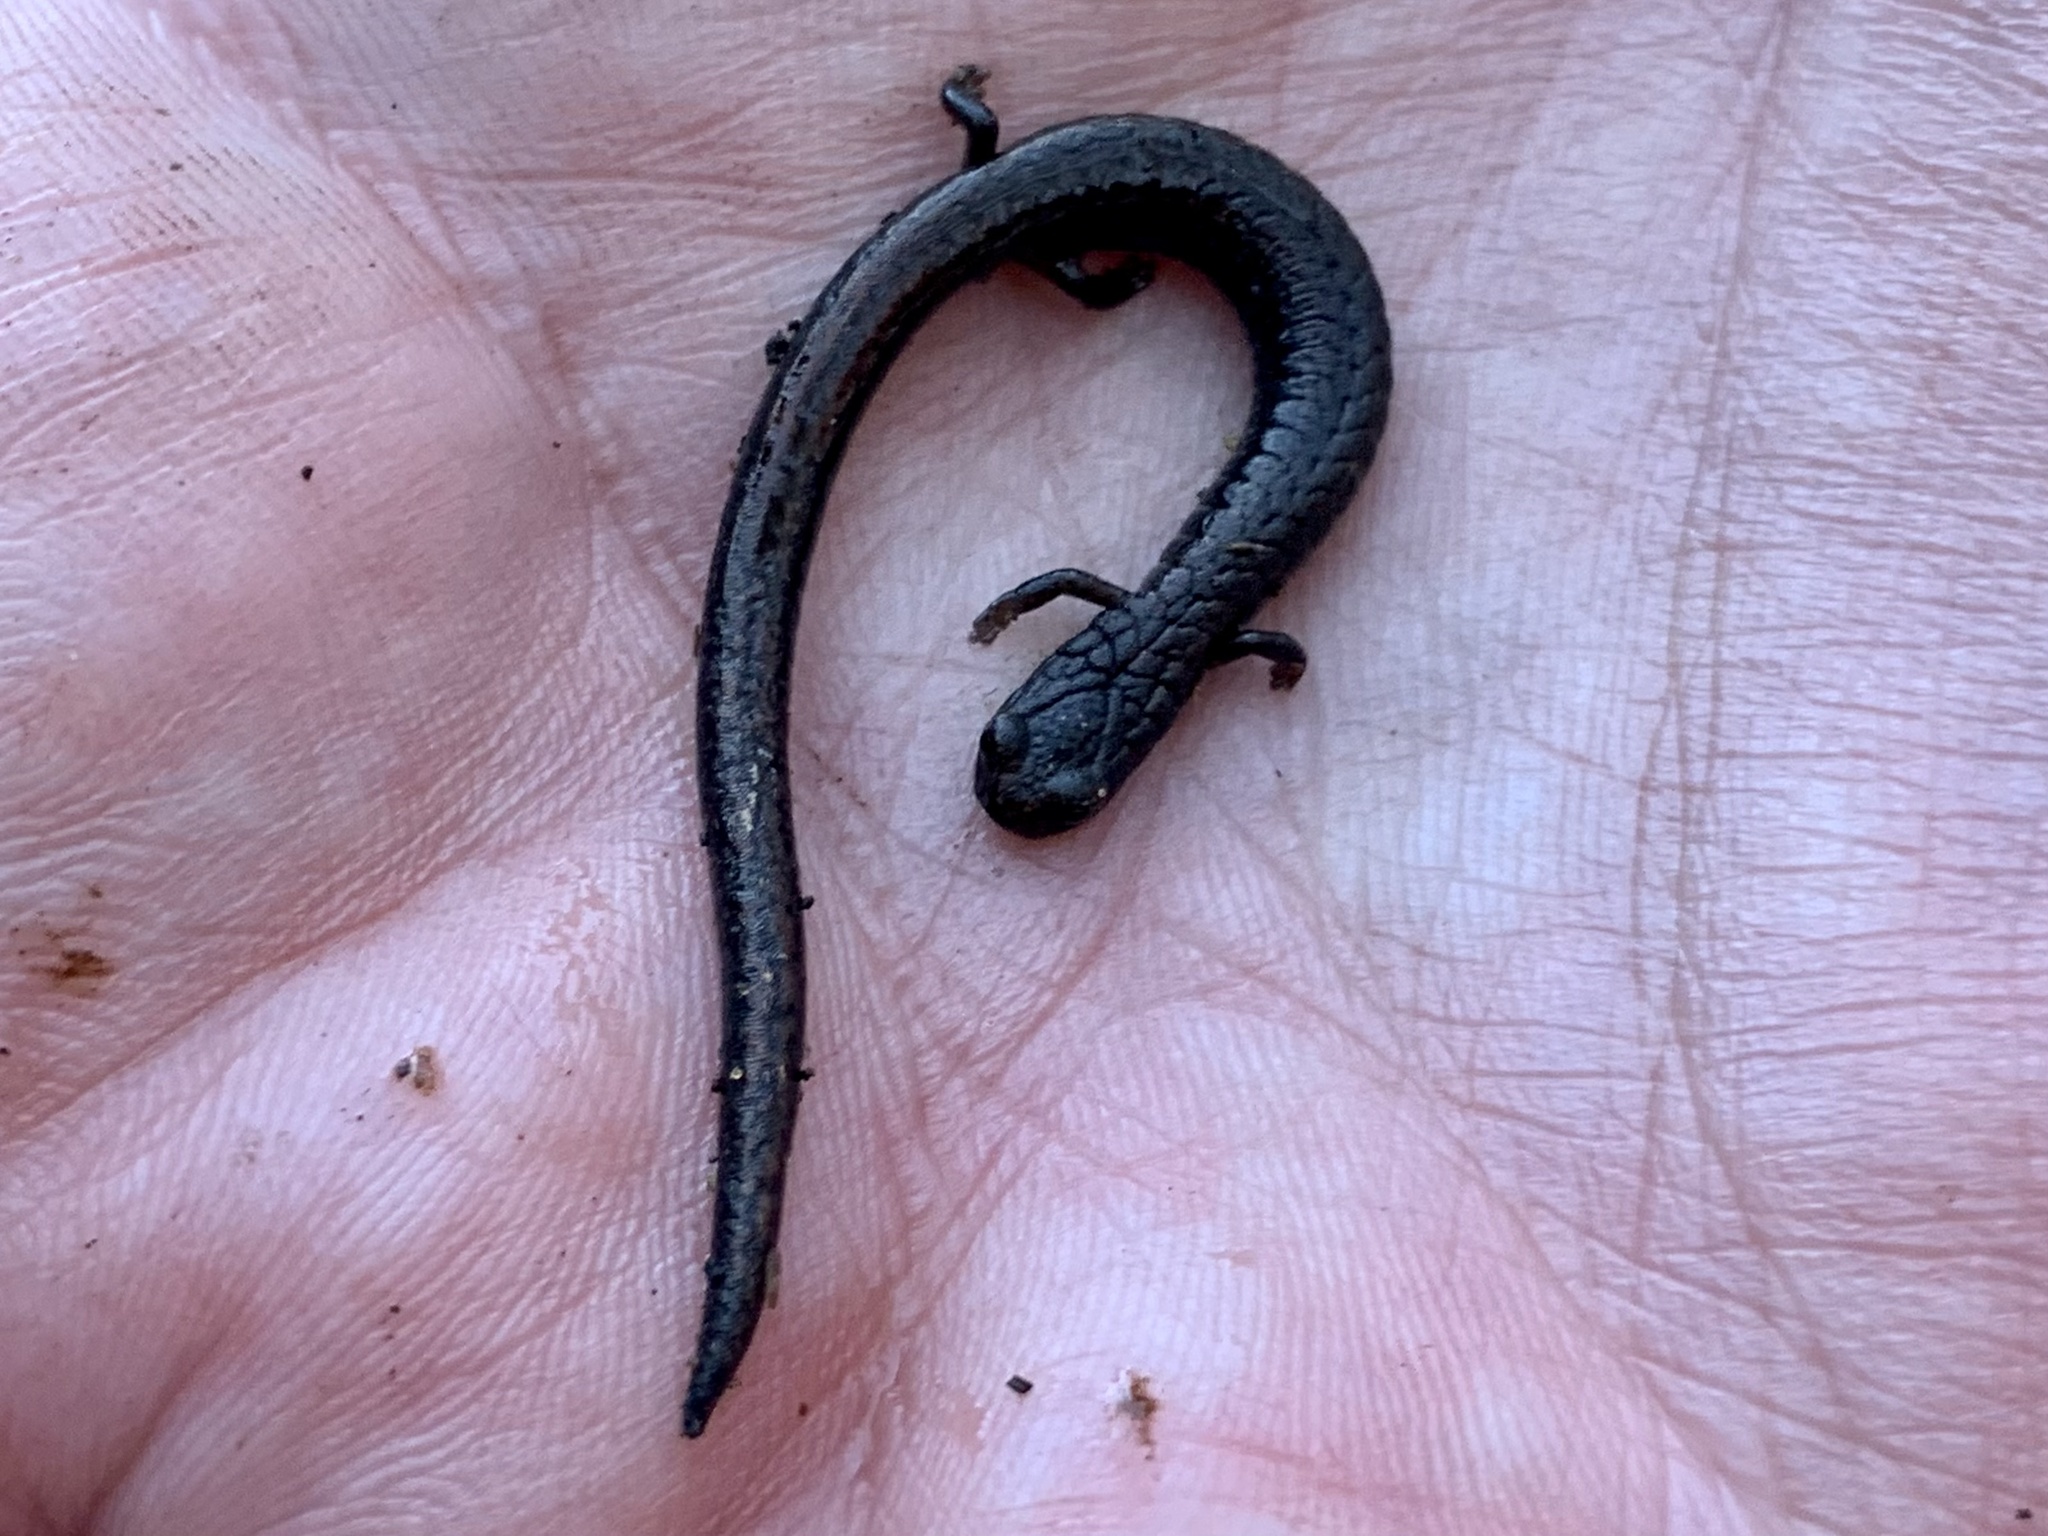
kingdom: Animalia
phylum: Chordata
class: Amphibia
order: Caudata
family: Plethodontidae
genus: Batrachoseps
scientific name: Batrachoseps attenuatus
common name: California slender salamander
